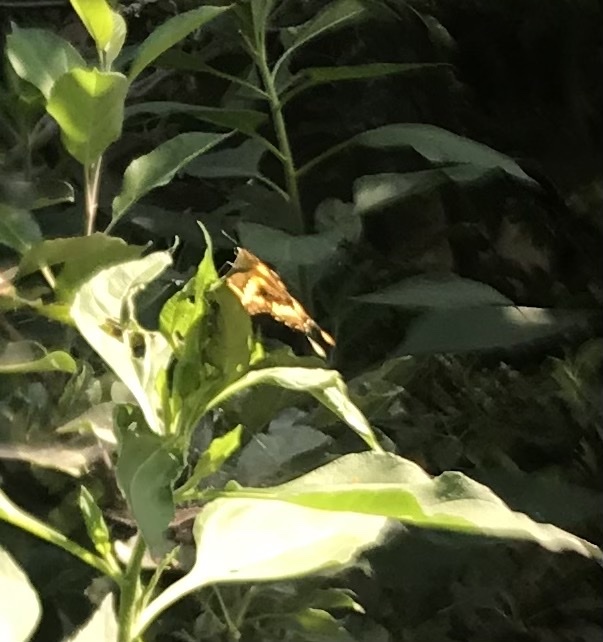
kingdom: Animalia
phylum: Arthropoda
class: Insecta
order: Lepidoptera
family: Papilionidae
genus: Papilio
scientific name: Papilio rumiko
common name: Western giant swallowtail
